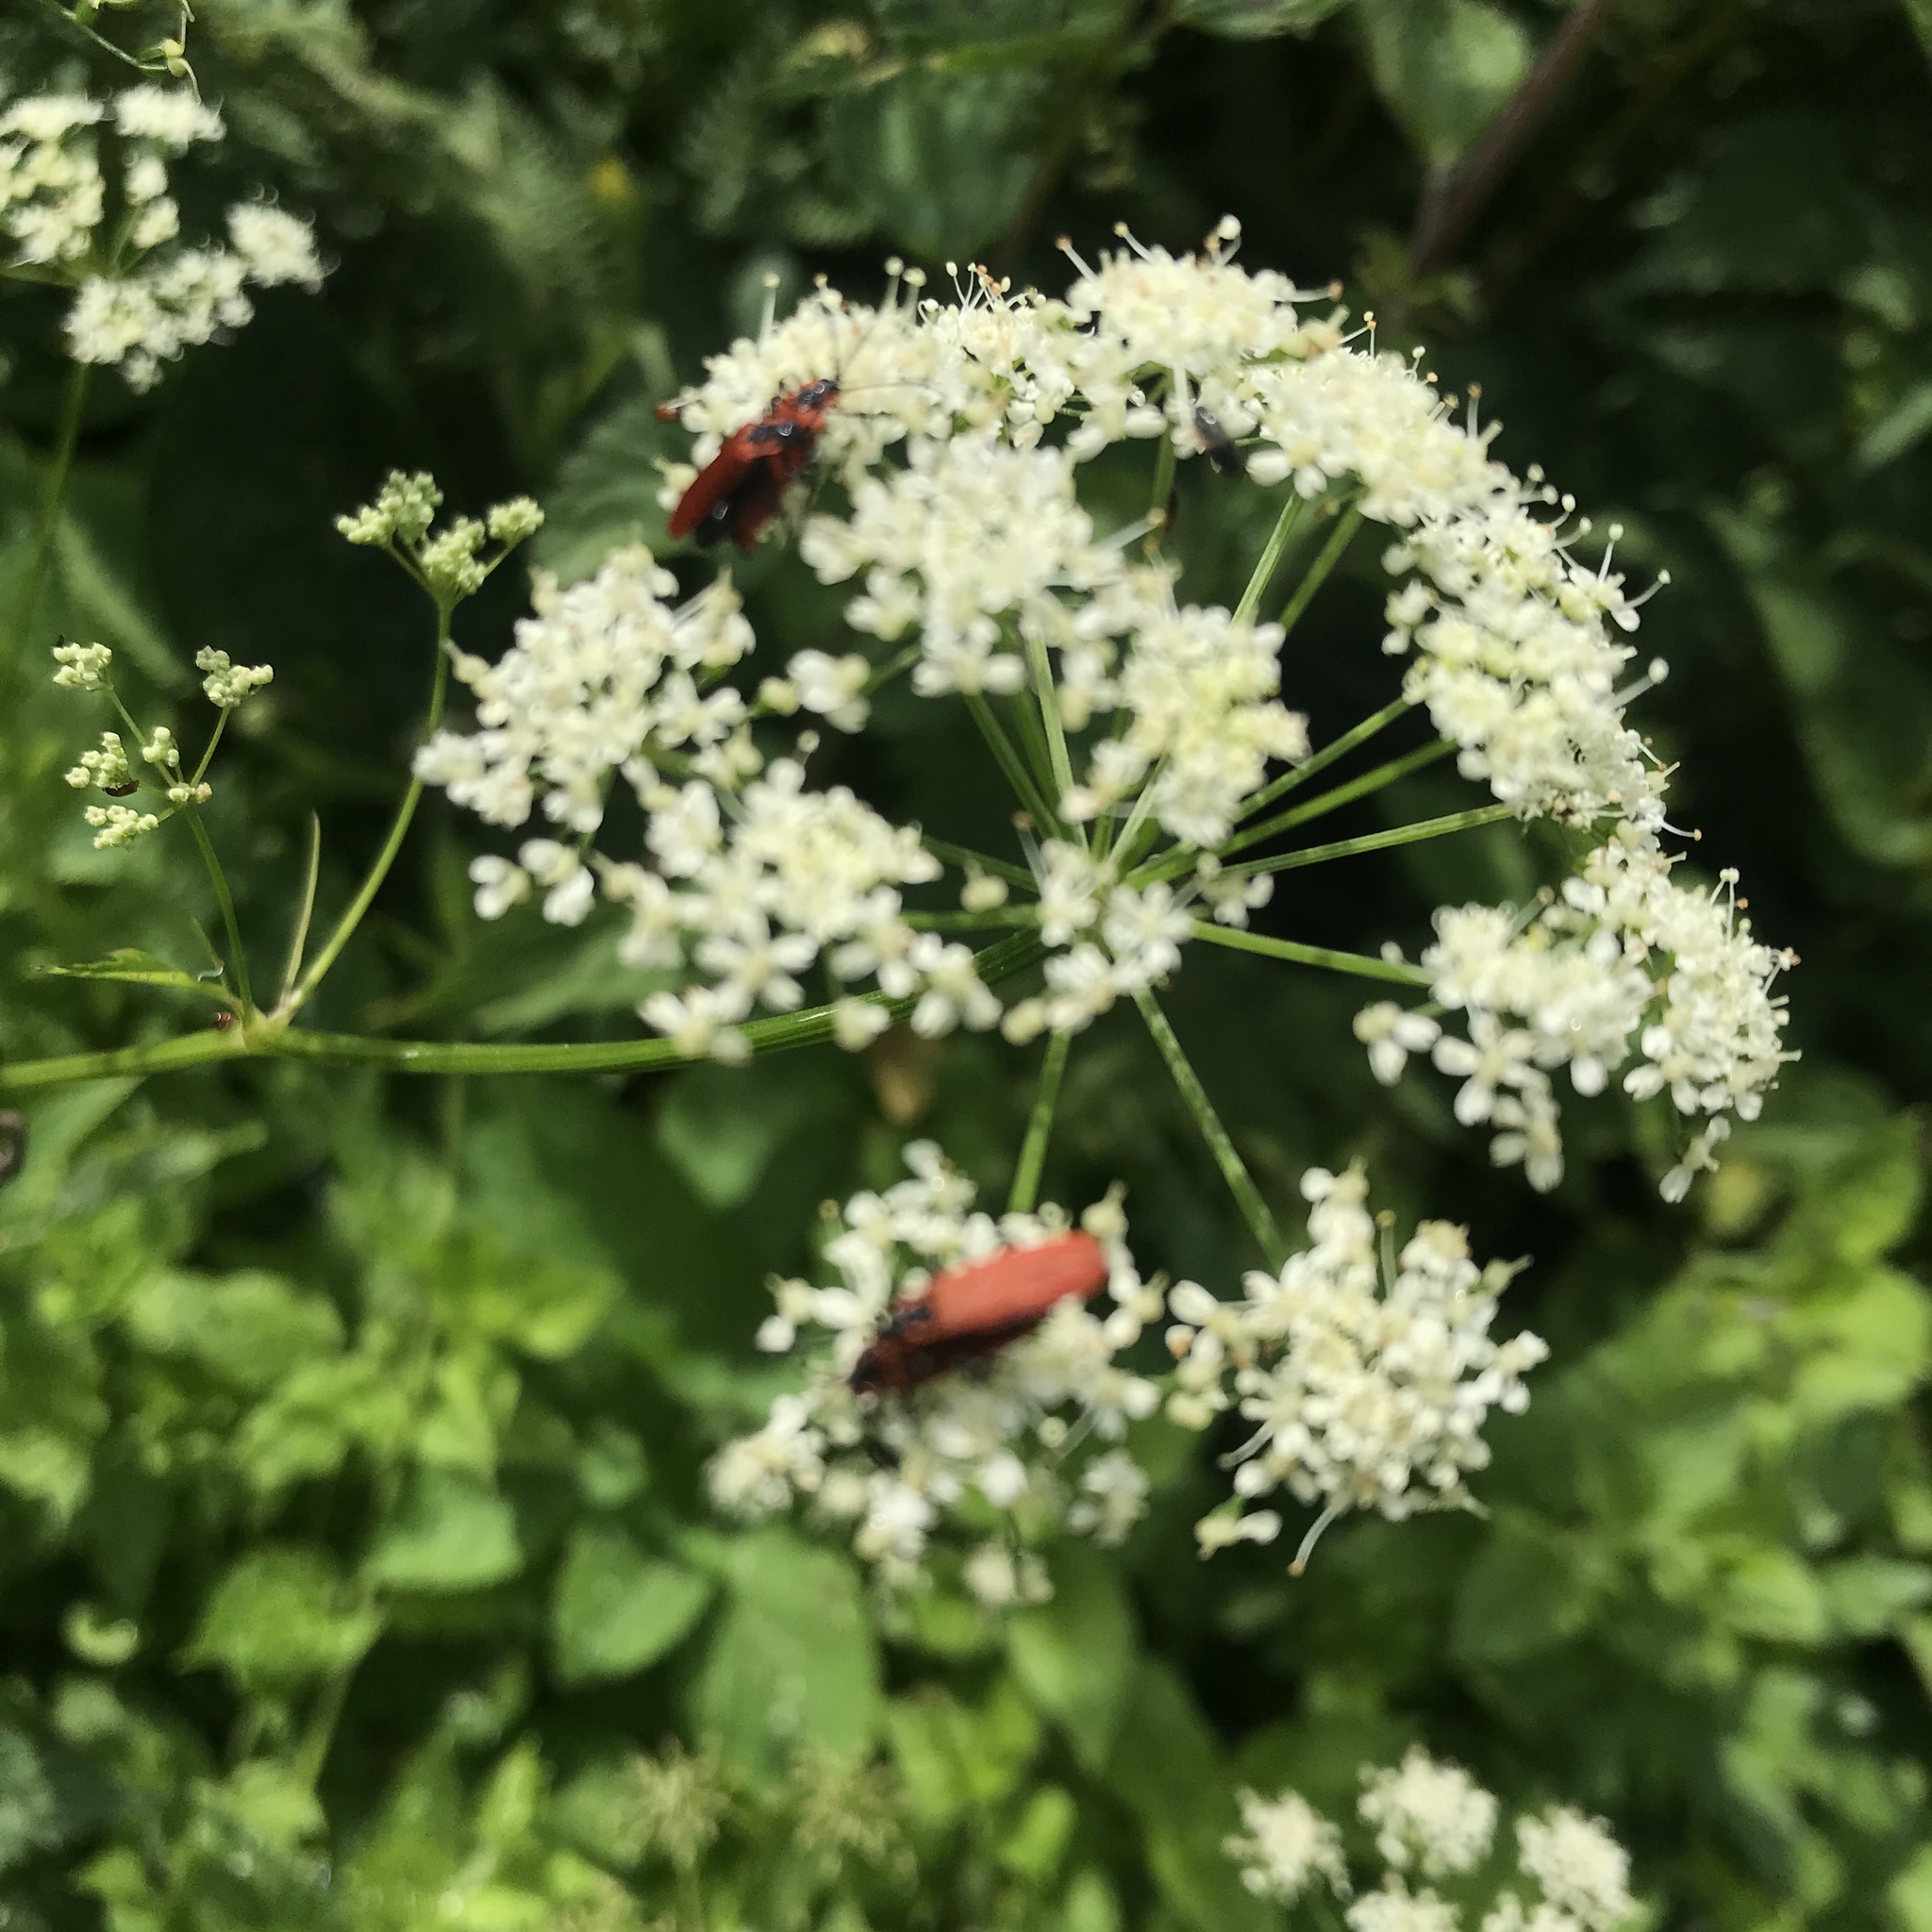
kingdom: Animalia
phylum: Arthropoda
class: Insecta
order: Coleoptera
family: Lycidae
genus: Lygistopterus
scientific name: Lygistopterus sanguineus
